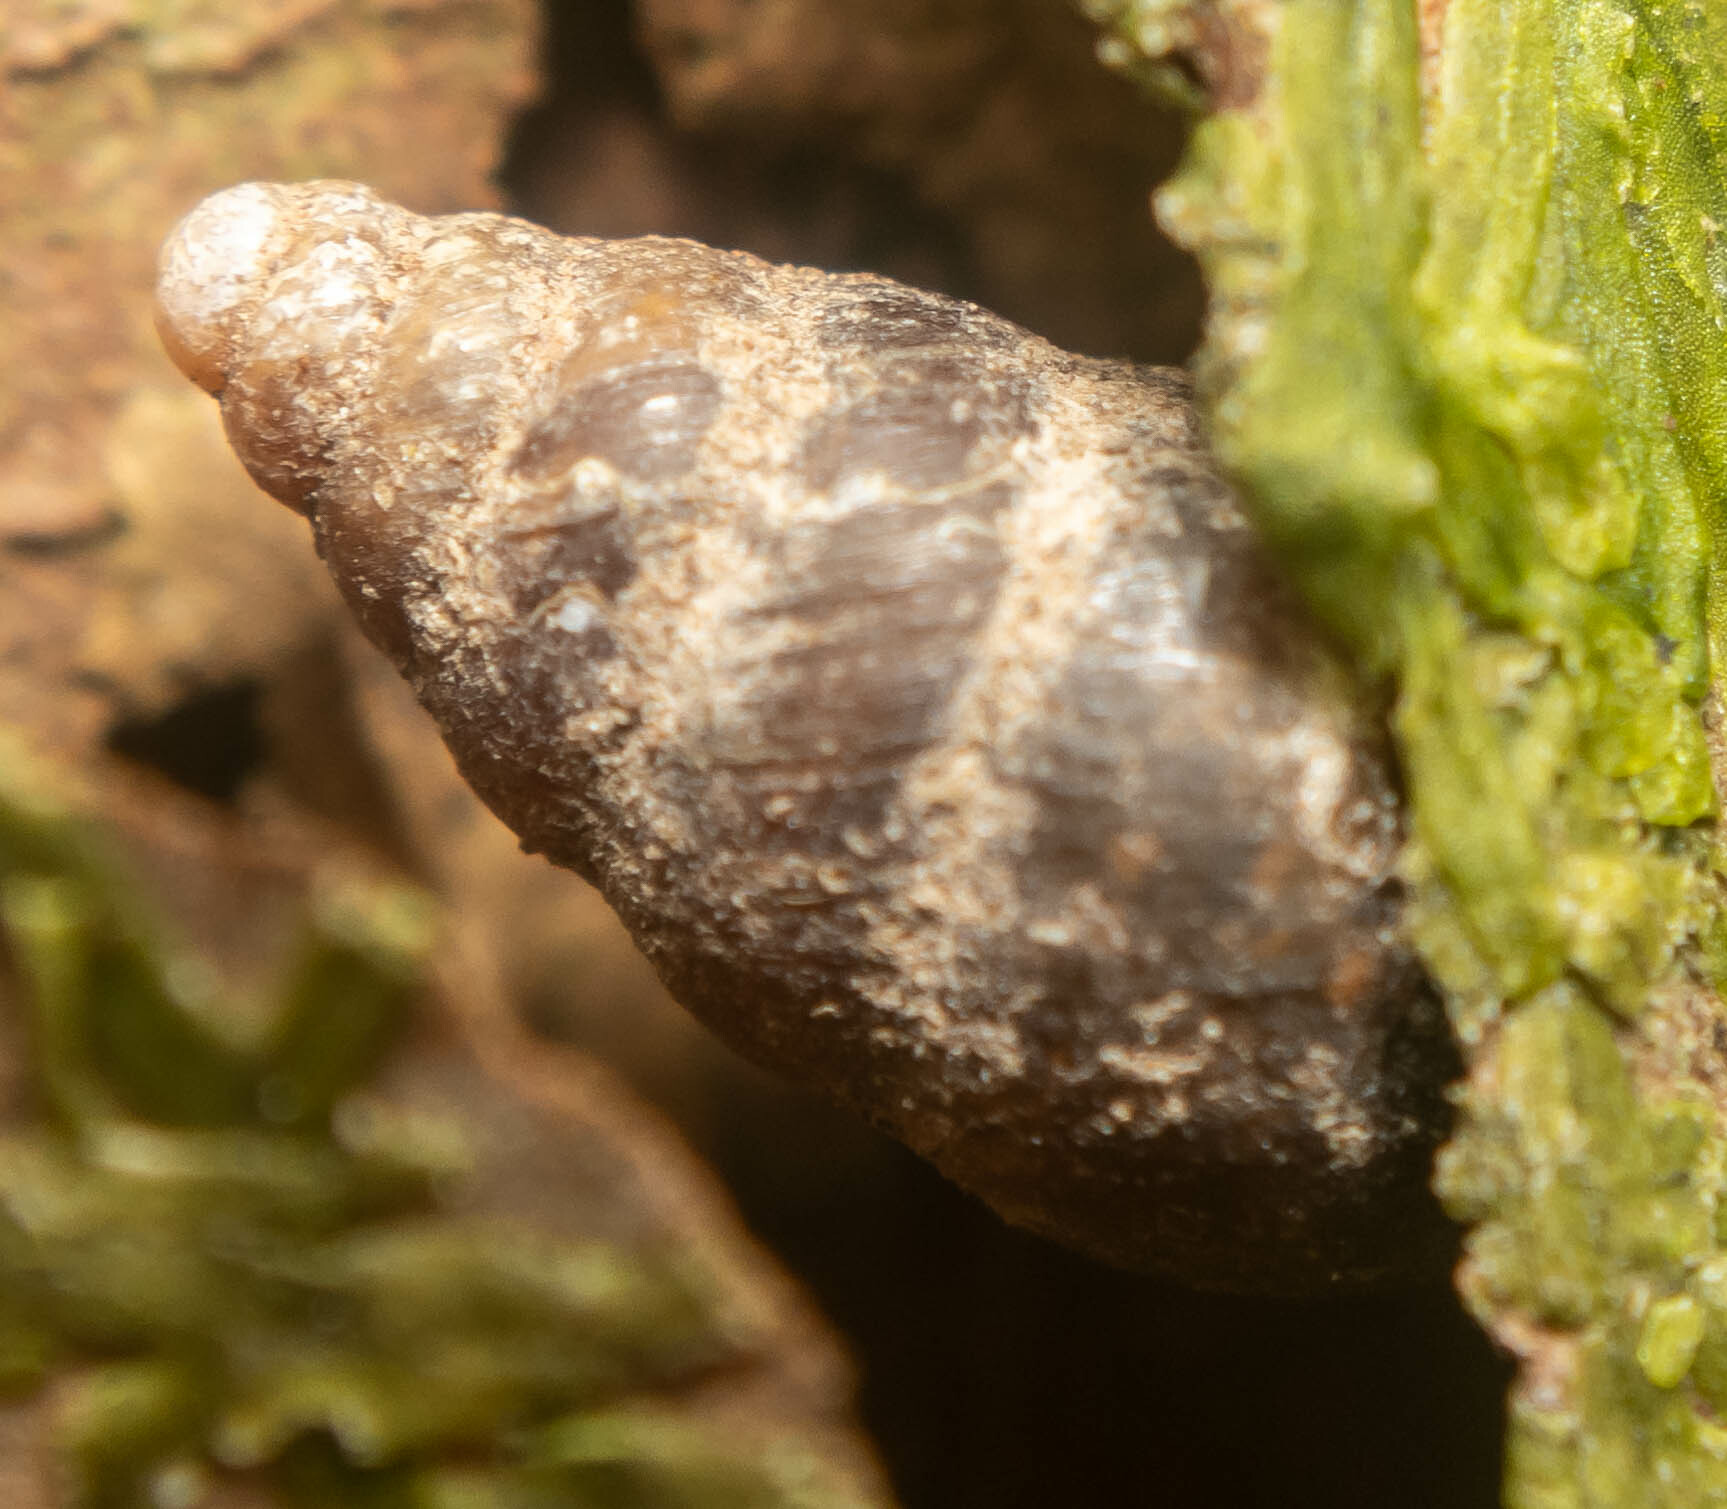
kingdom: Animalia
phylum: Mollusca
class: Gastropoda
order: Stylommatophora
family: Enidae
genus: Merdigera
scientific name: Merdigera obscura
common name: Lesser bulin
